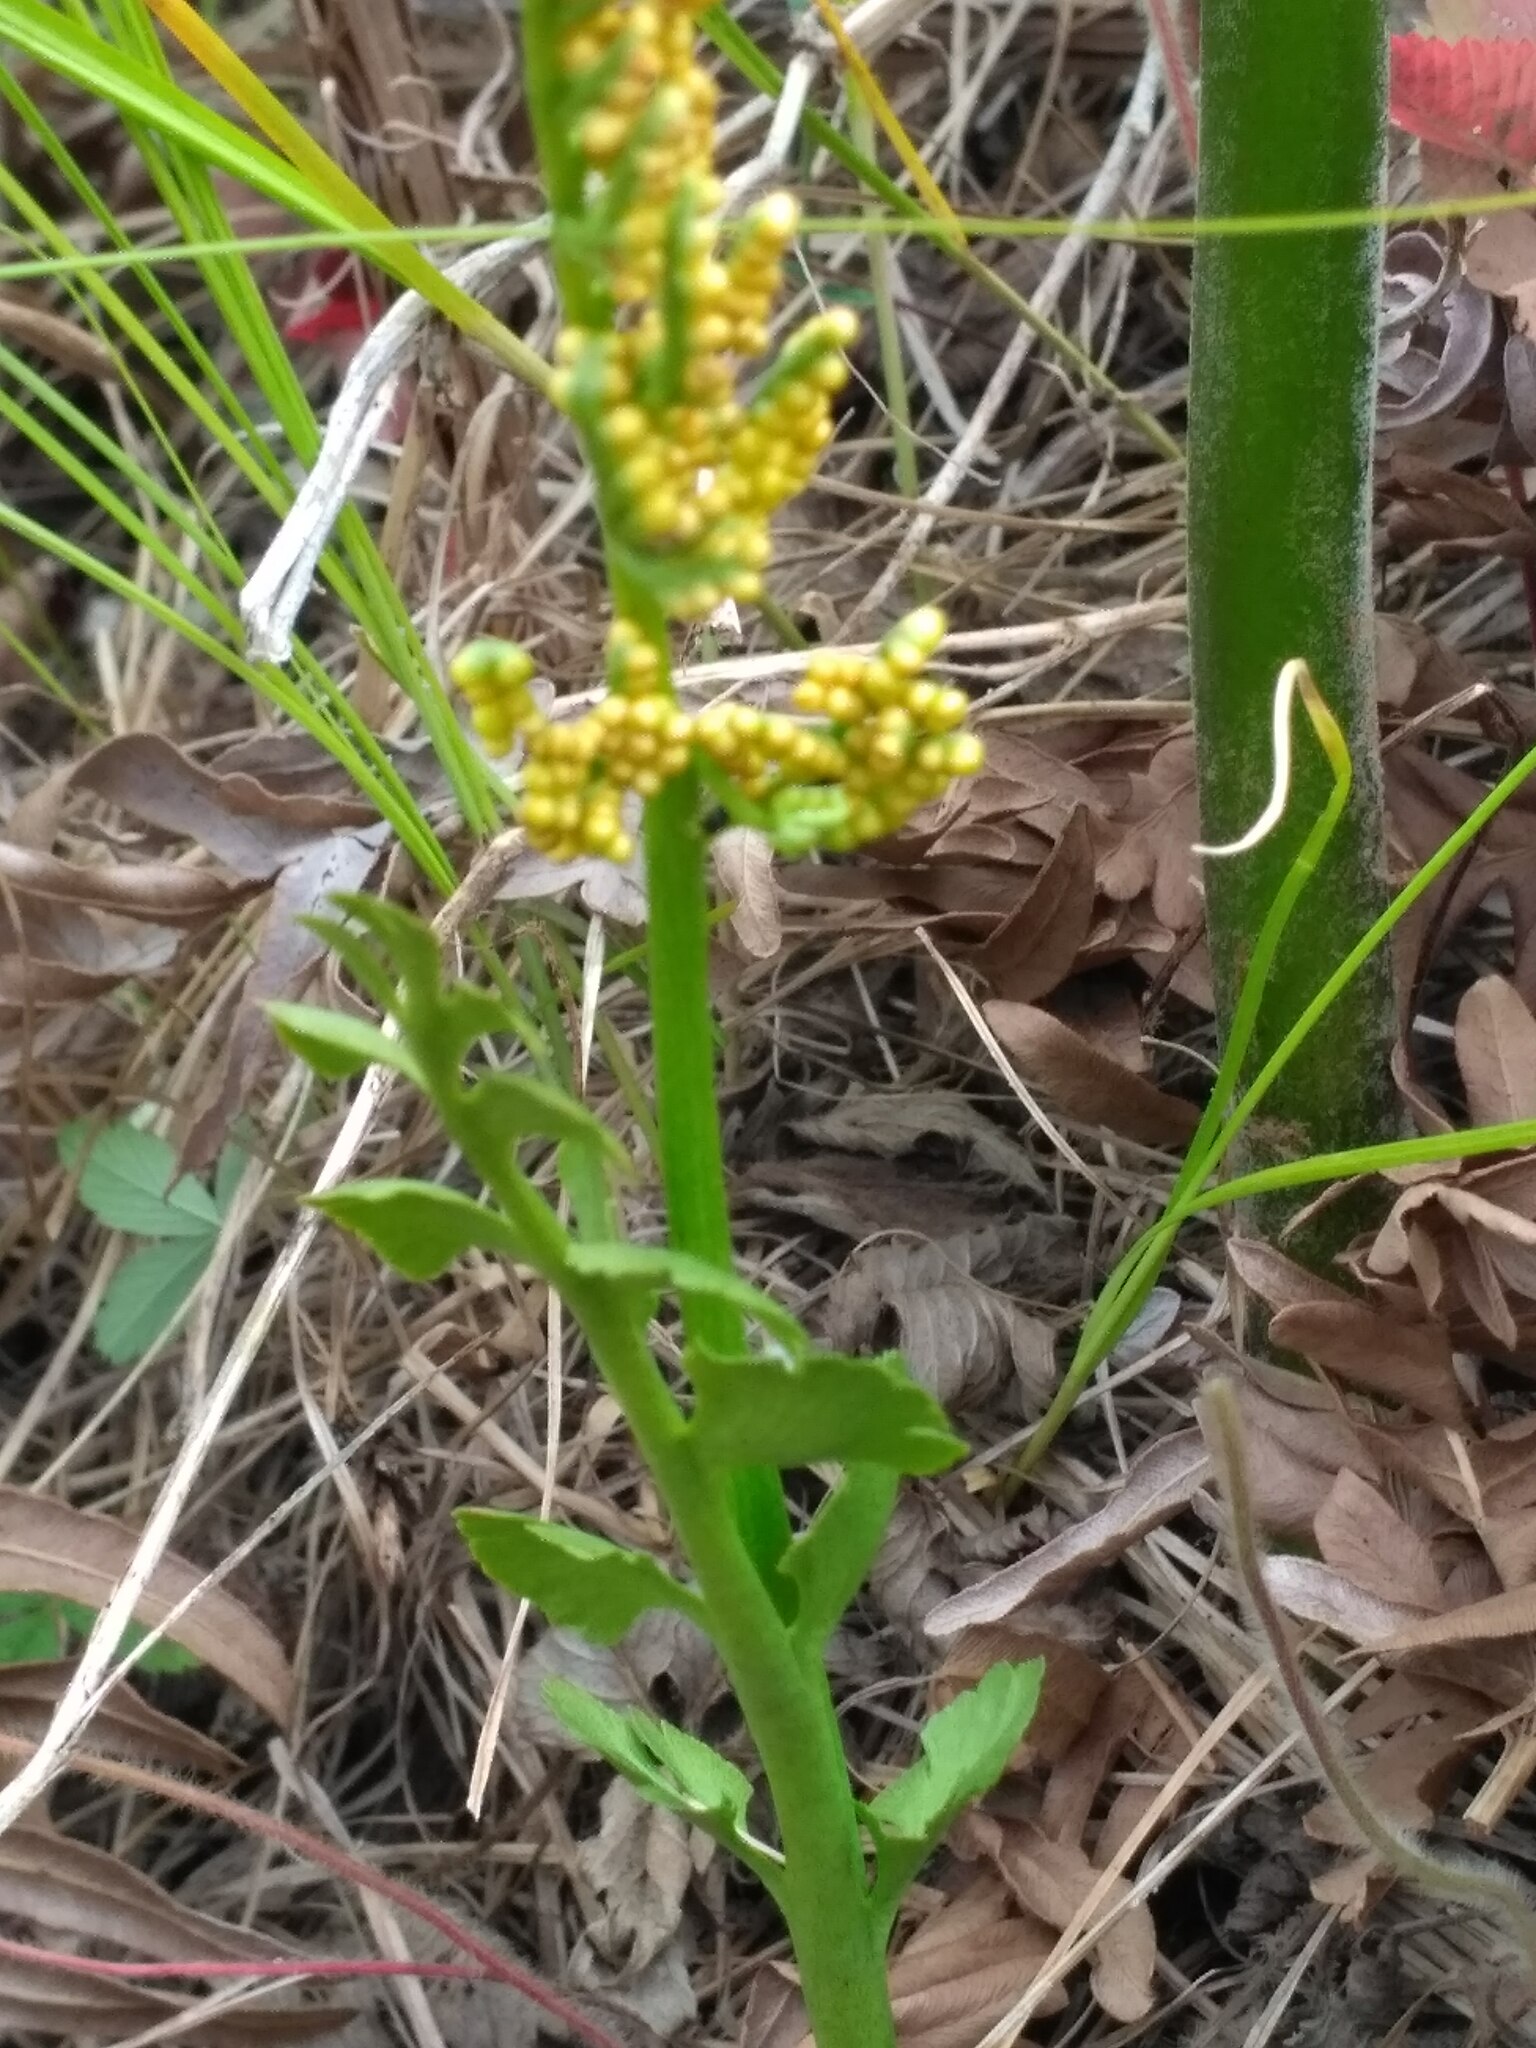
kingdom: Plantae
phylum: Tracheophyta
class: Polypodiopsida
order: Ophioglossales
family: Ophioglossaceae
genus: Botrychium
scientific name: Botrychium lunaria
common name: Moonwort
